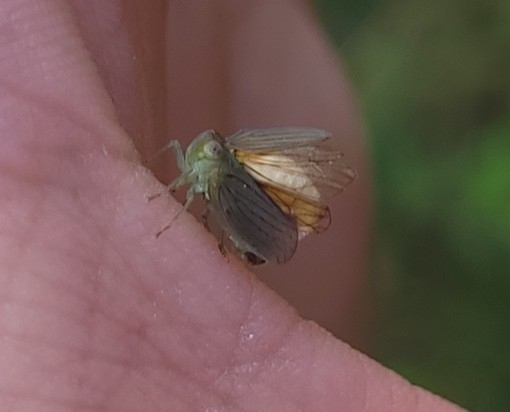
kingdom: Animalia
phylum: Arthropoda
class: Insecta
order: Hemiptera
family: Issidae
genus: Aplos
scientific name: Aplos simplex
